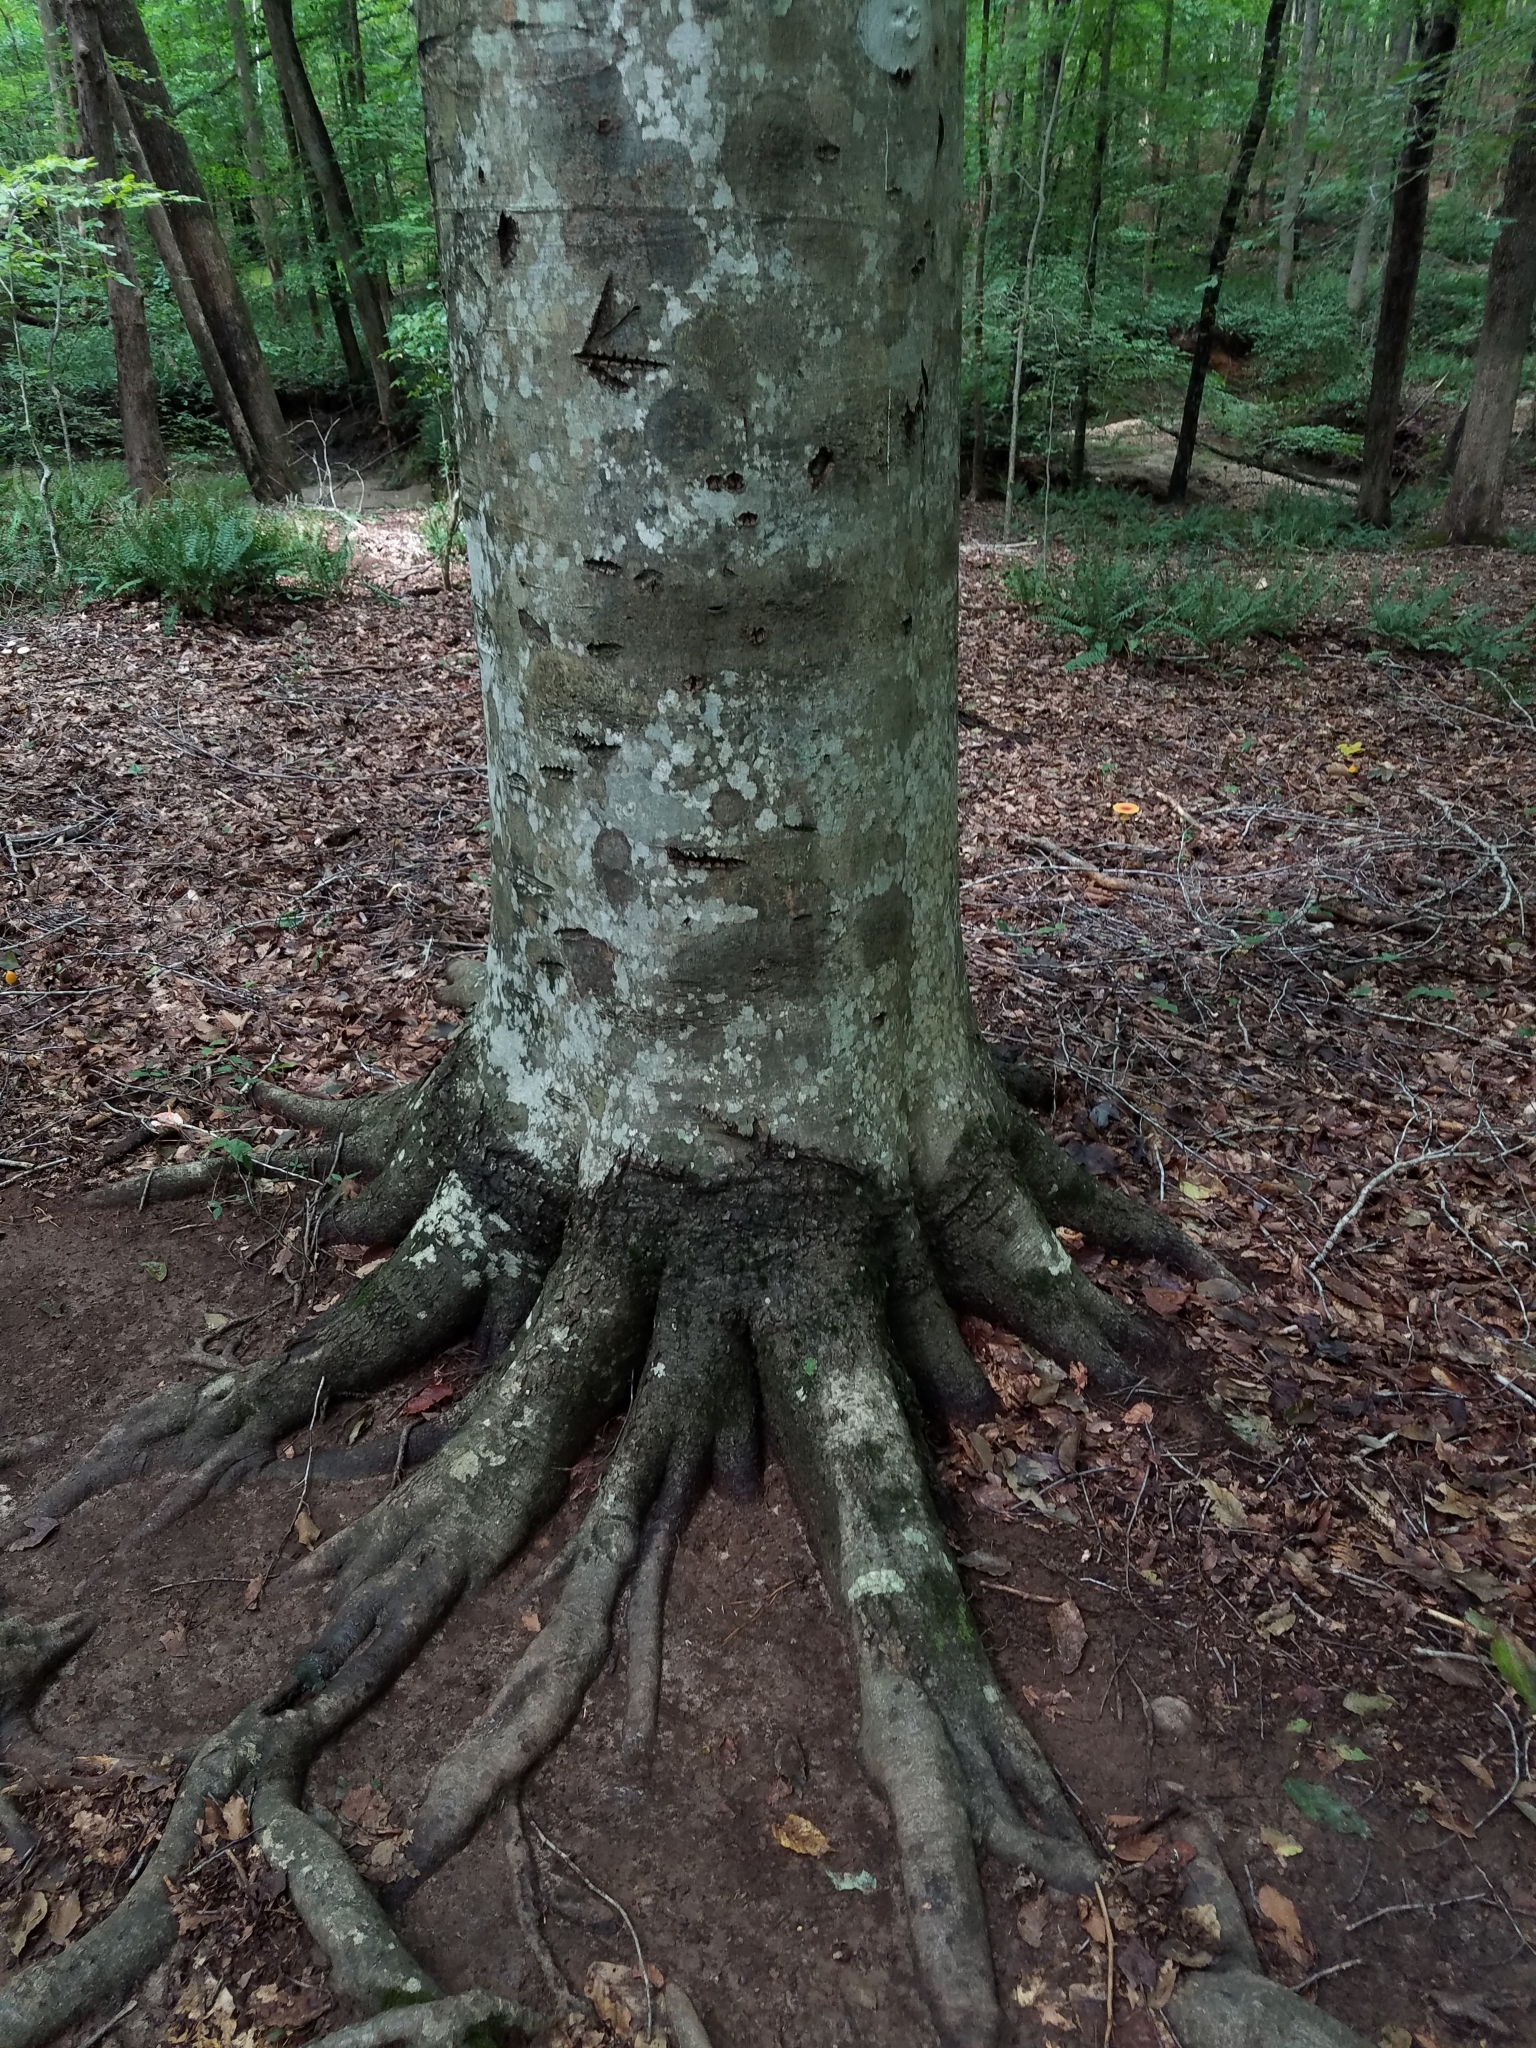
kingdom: Plantae
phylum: Tracheophyta
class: Magnoliopsida
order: Fagales
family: Fagaceae
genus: Fagus
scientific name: Fagus grandifolia
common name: American beech
